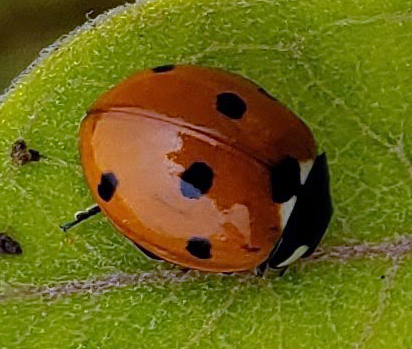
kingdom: Animalia
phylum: Arthropoda
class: Insecta
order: Coleoptera
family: Coccinellidae
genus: Coccinella
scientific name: Coccinella septempunctata
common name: Sevenspotted lady beetle
